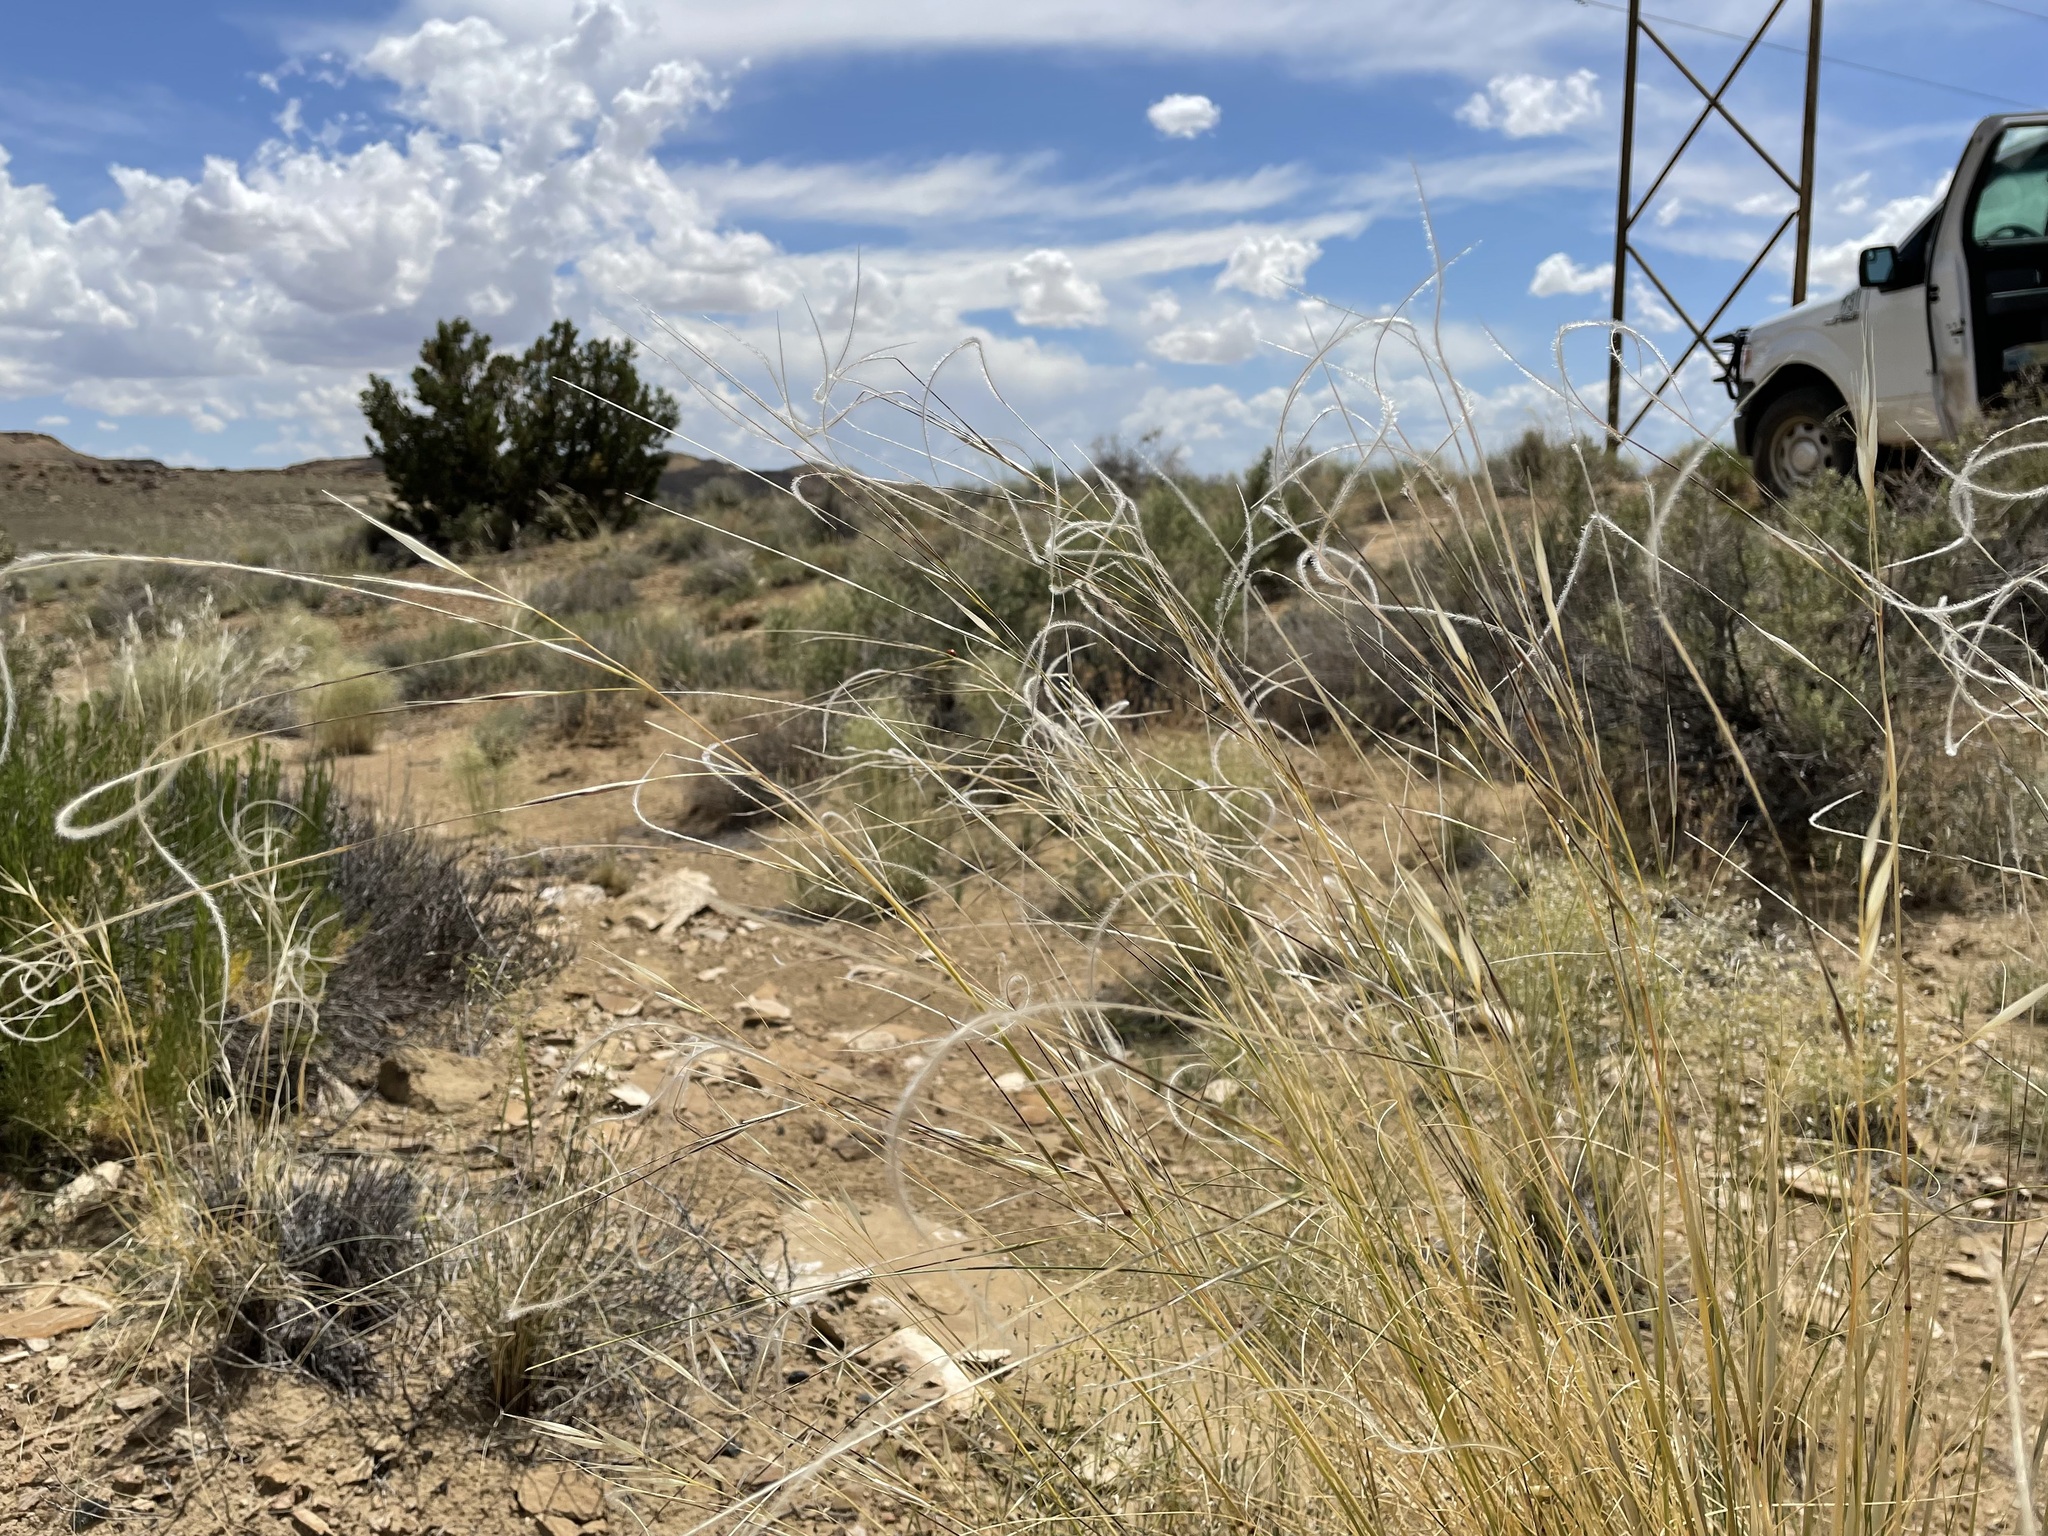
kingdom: Plantae
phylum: Tracheophyta
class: Liliopsida
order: Poales
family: Poaceae
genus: Hesperostipa
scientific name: Hesperostipa neomexicana
